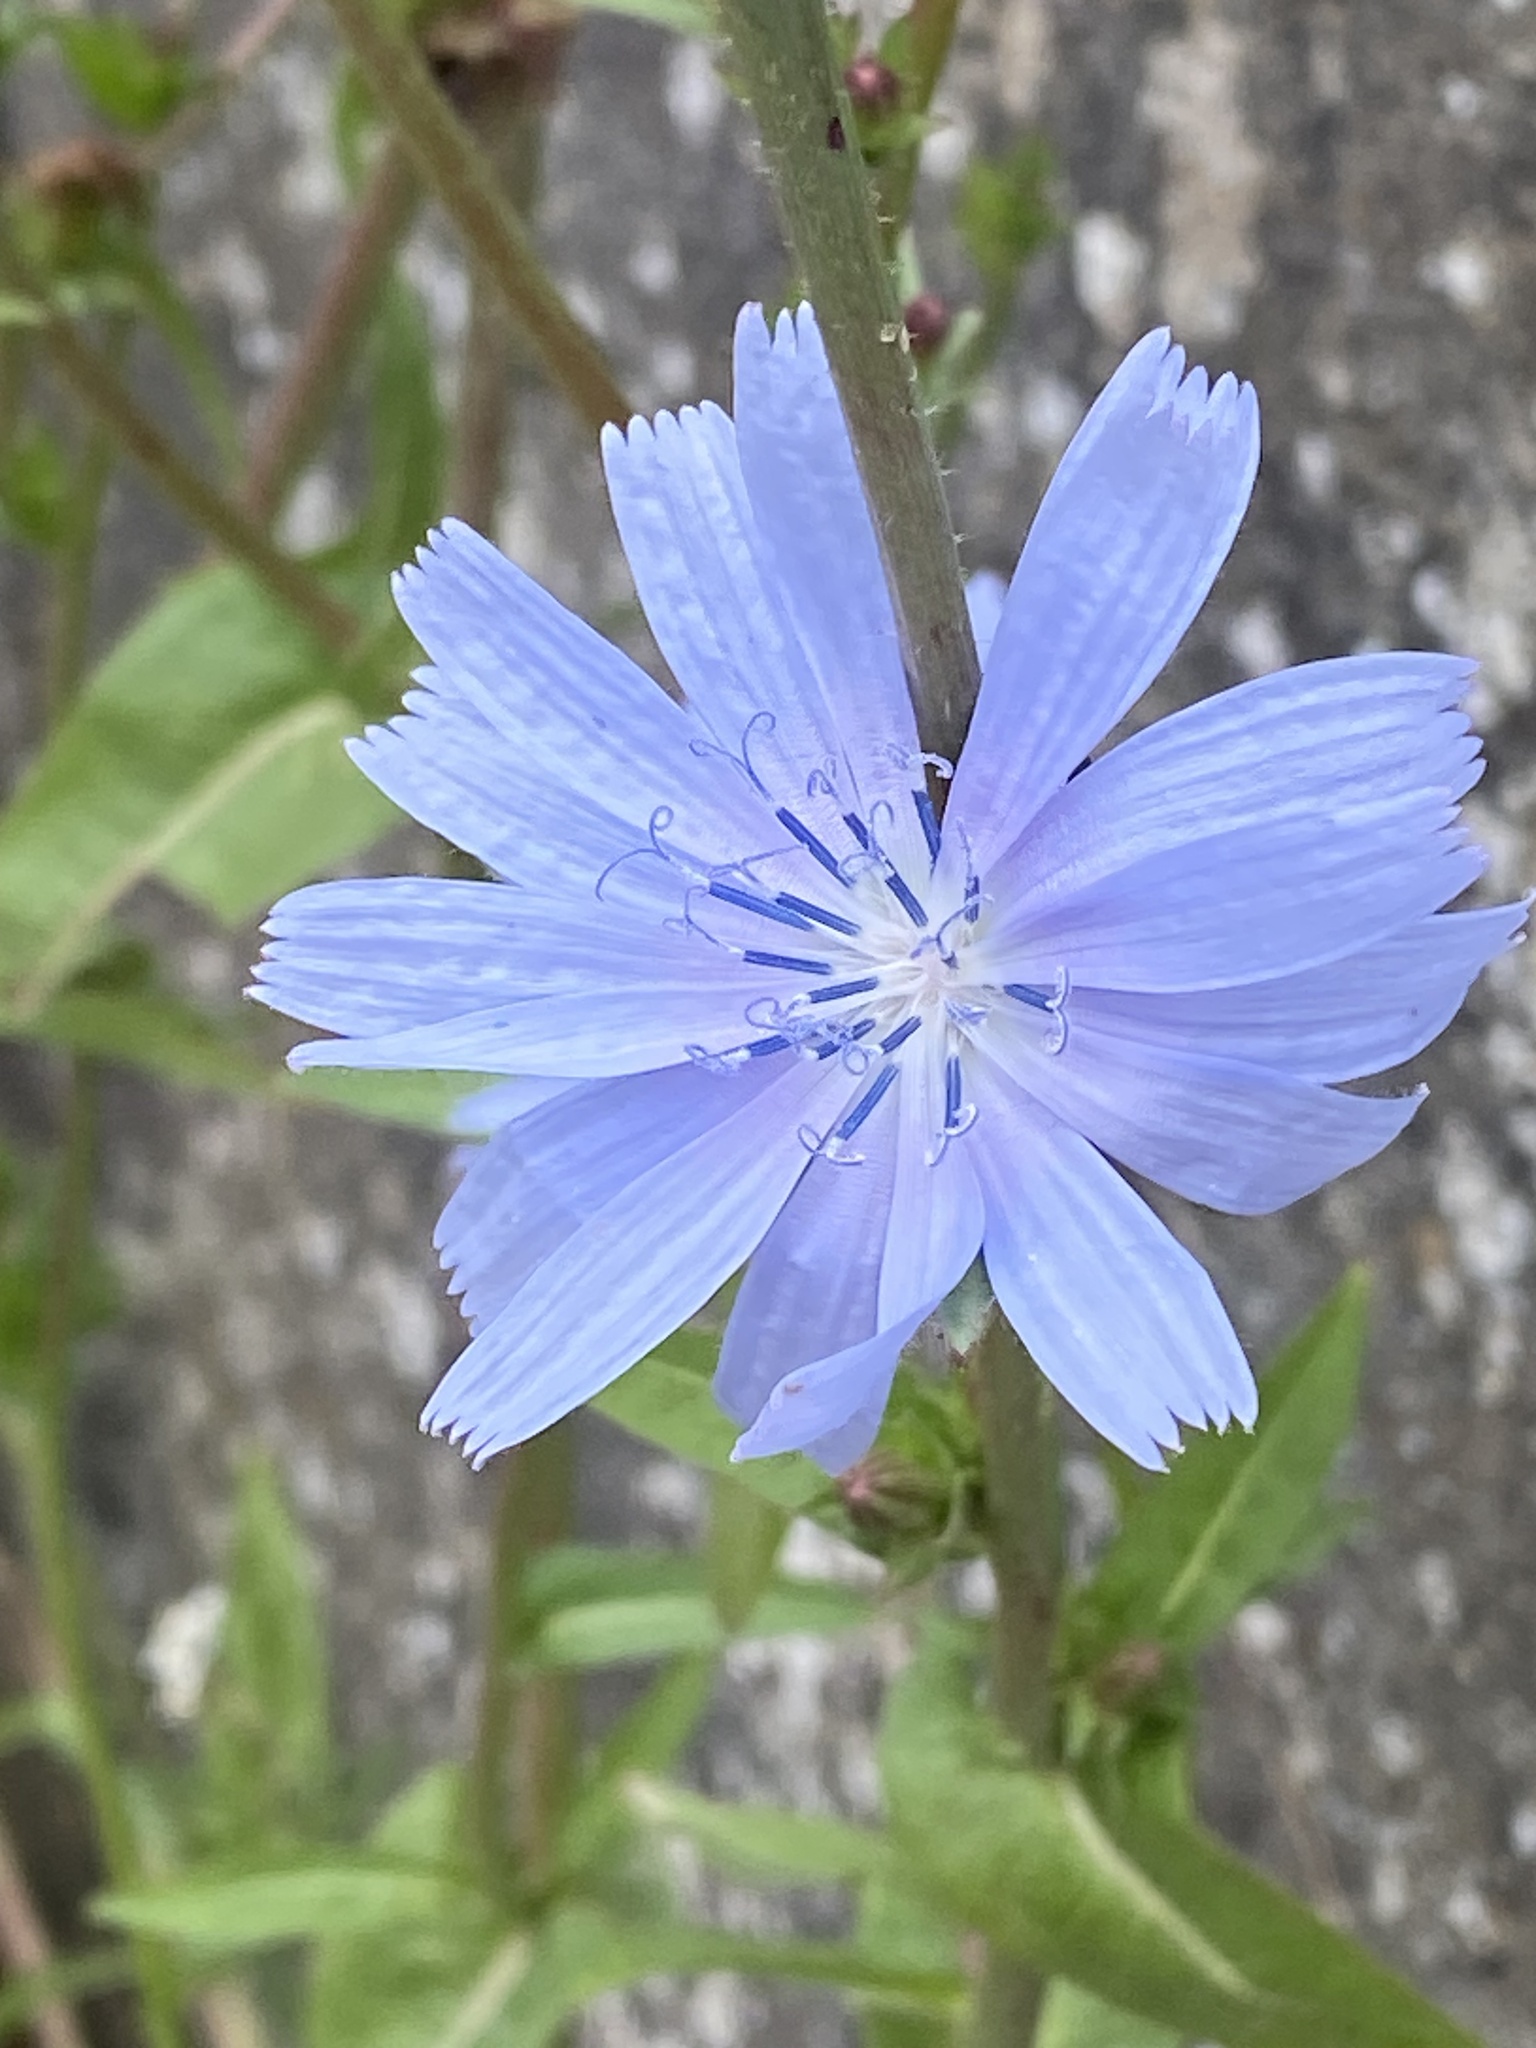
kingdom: Plantae
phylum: Tracheophyta
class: Magnoliopsida
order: Asterales
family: Asteraceae
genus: Cichorium
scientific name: Cichorium intybus
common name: Chicory
